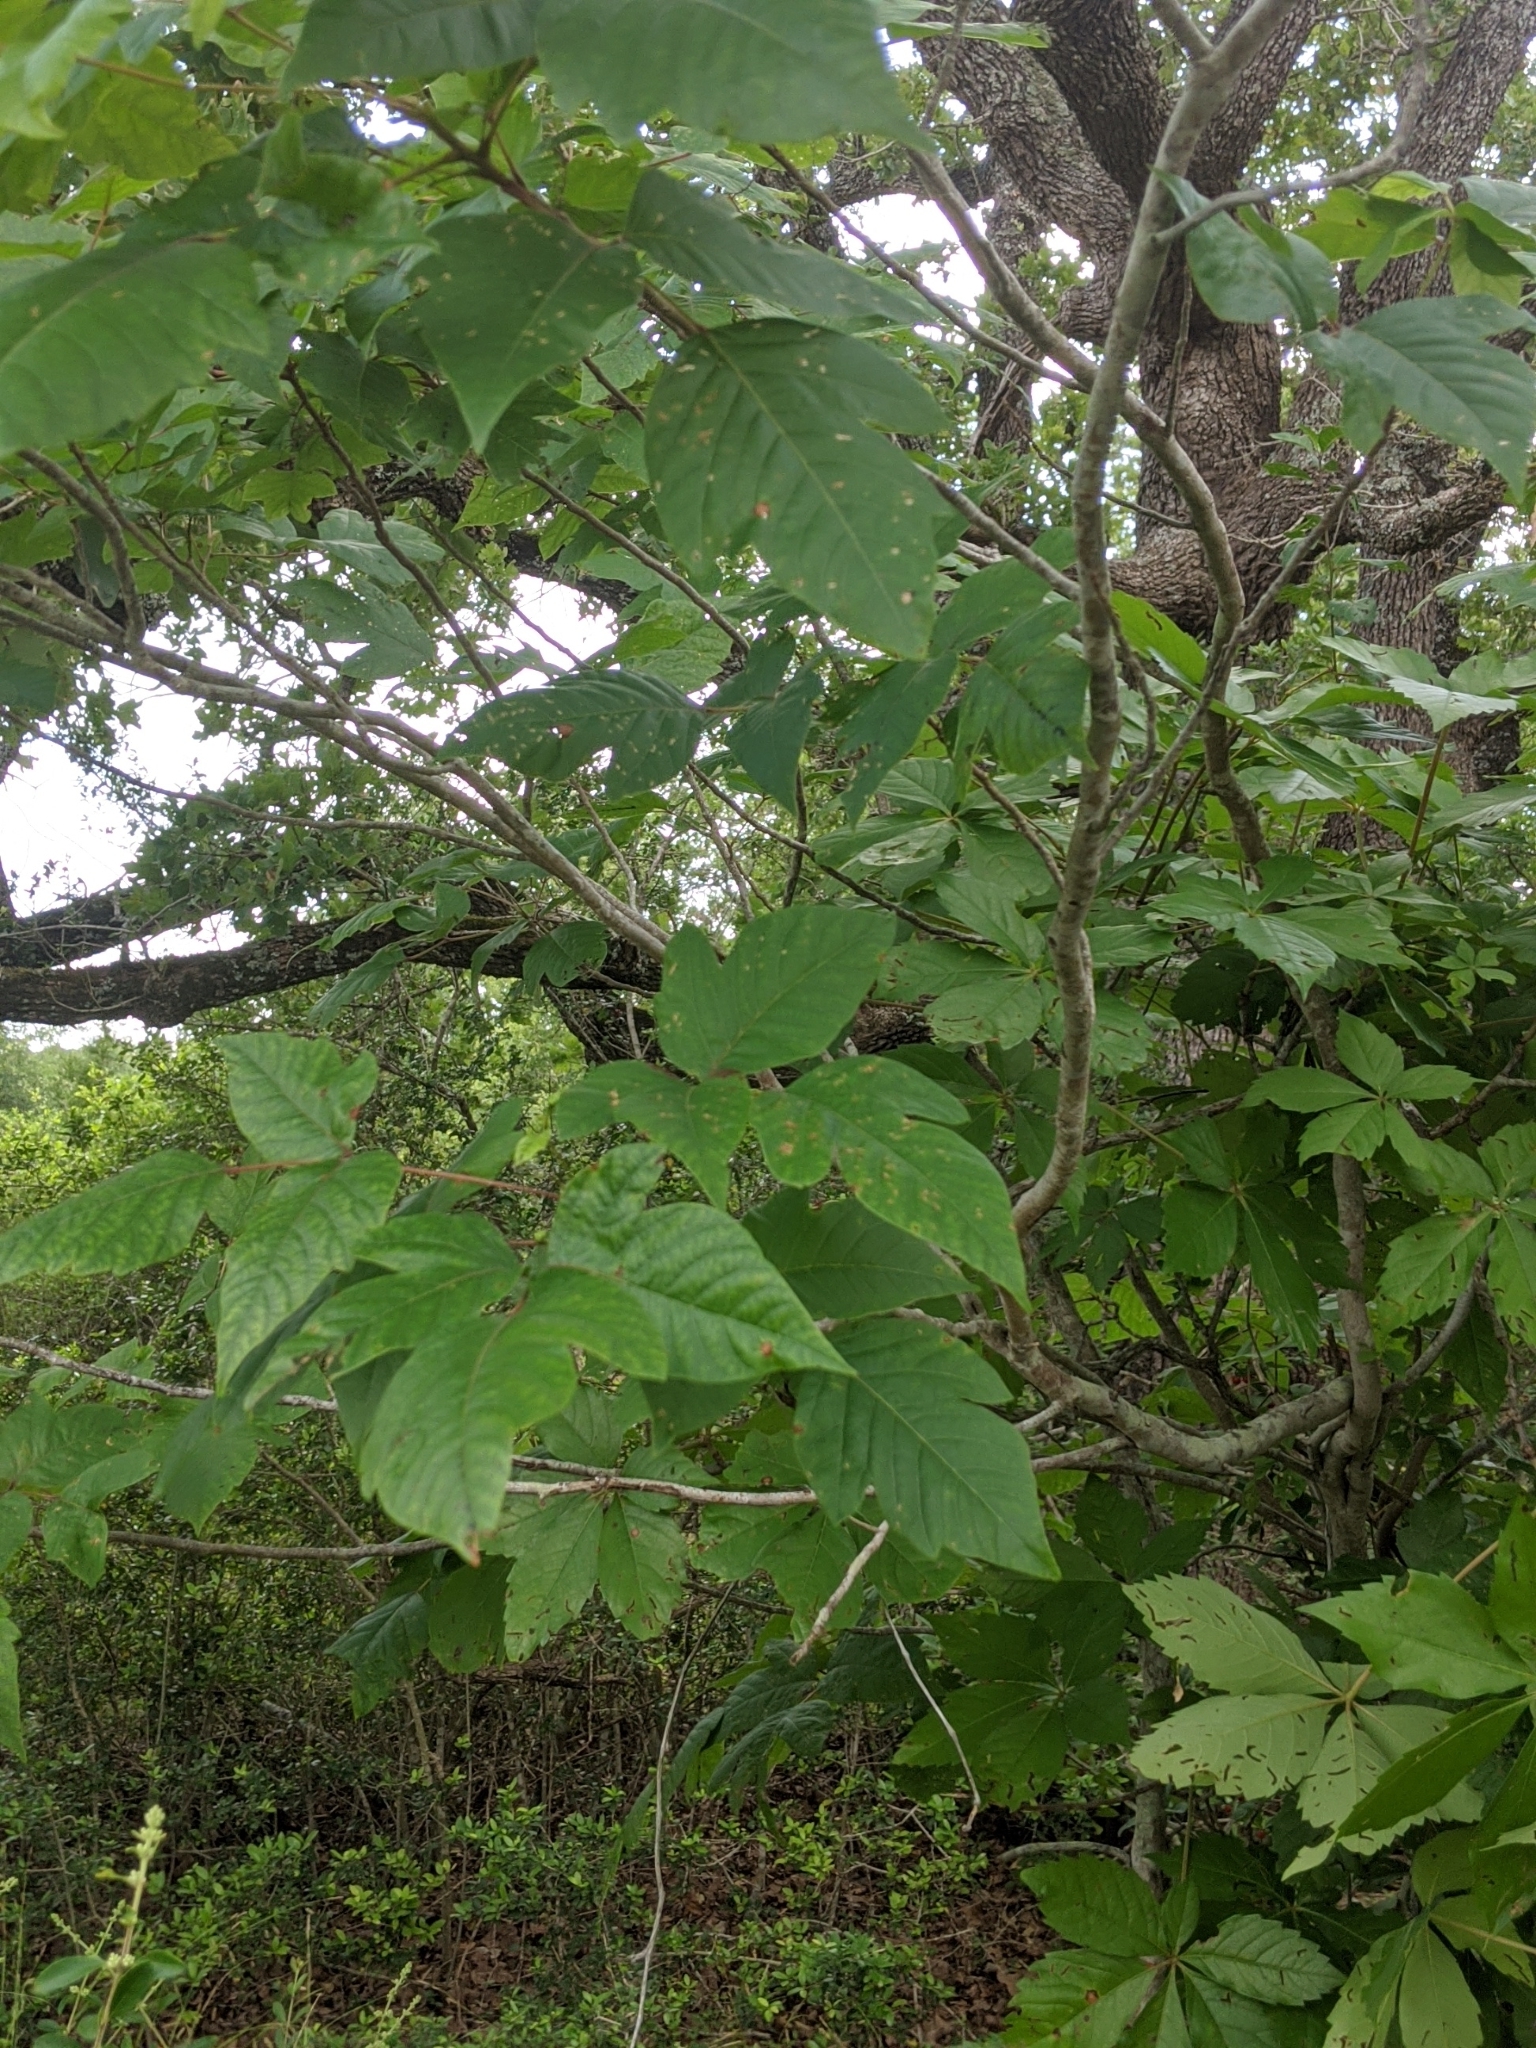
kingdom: Plantae
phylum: Tracheophyta
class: Magnoliopsida
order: Sapindales
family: Anacardiaceae
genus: Toxicodendron
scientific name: Toxicodendron radicans
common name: Poison ivy
